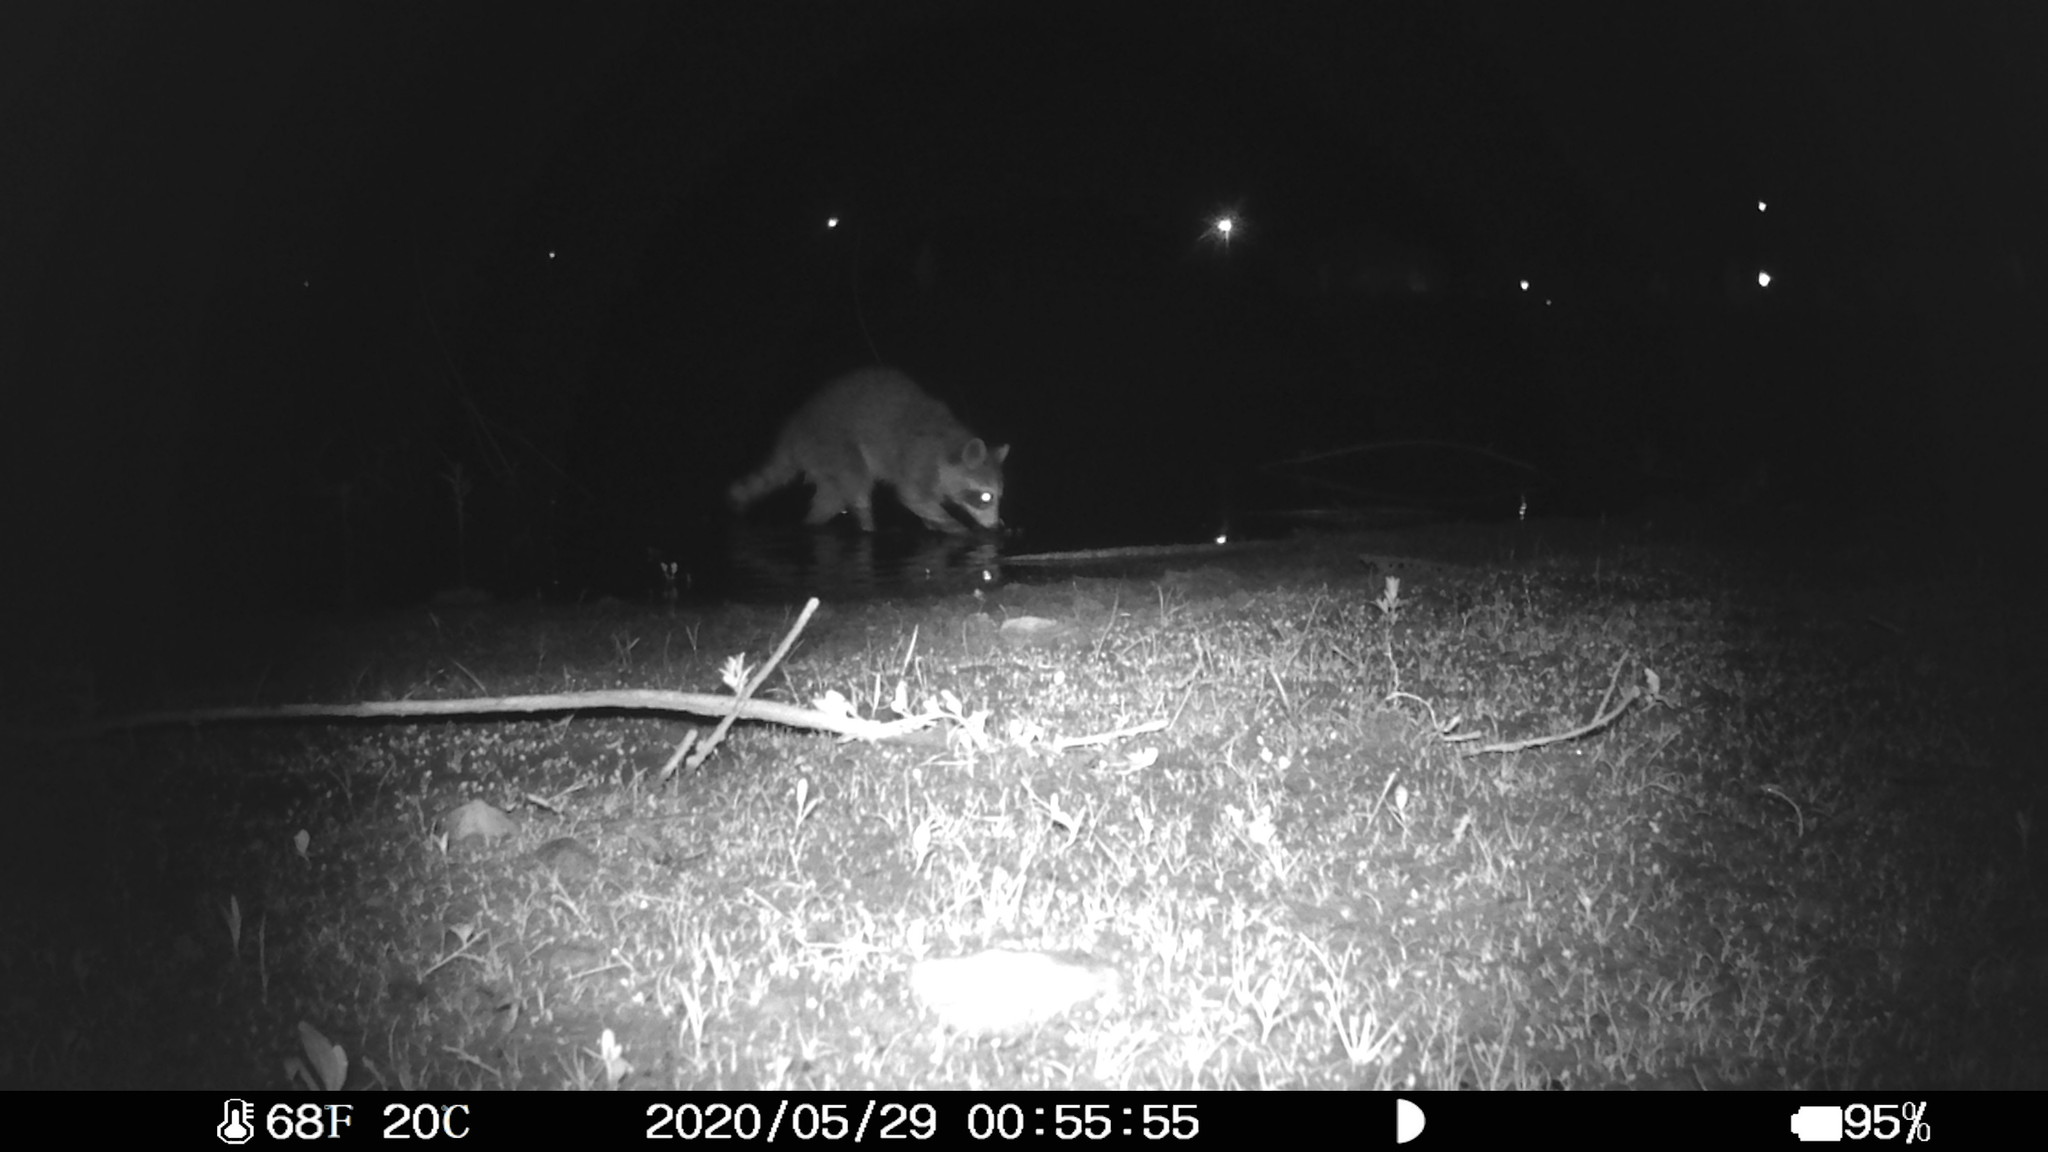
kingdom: Animalia
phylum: Chordata
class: Mammalia
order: Carnivora
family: Procyonidae
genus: Procyon
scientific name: Procyon lotor
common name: Raccoon
